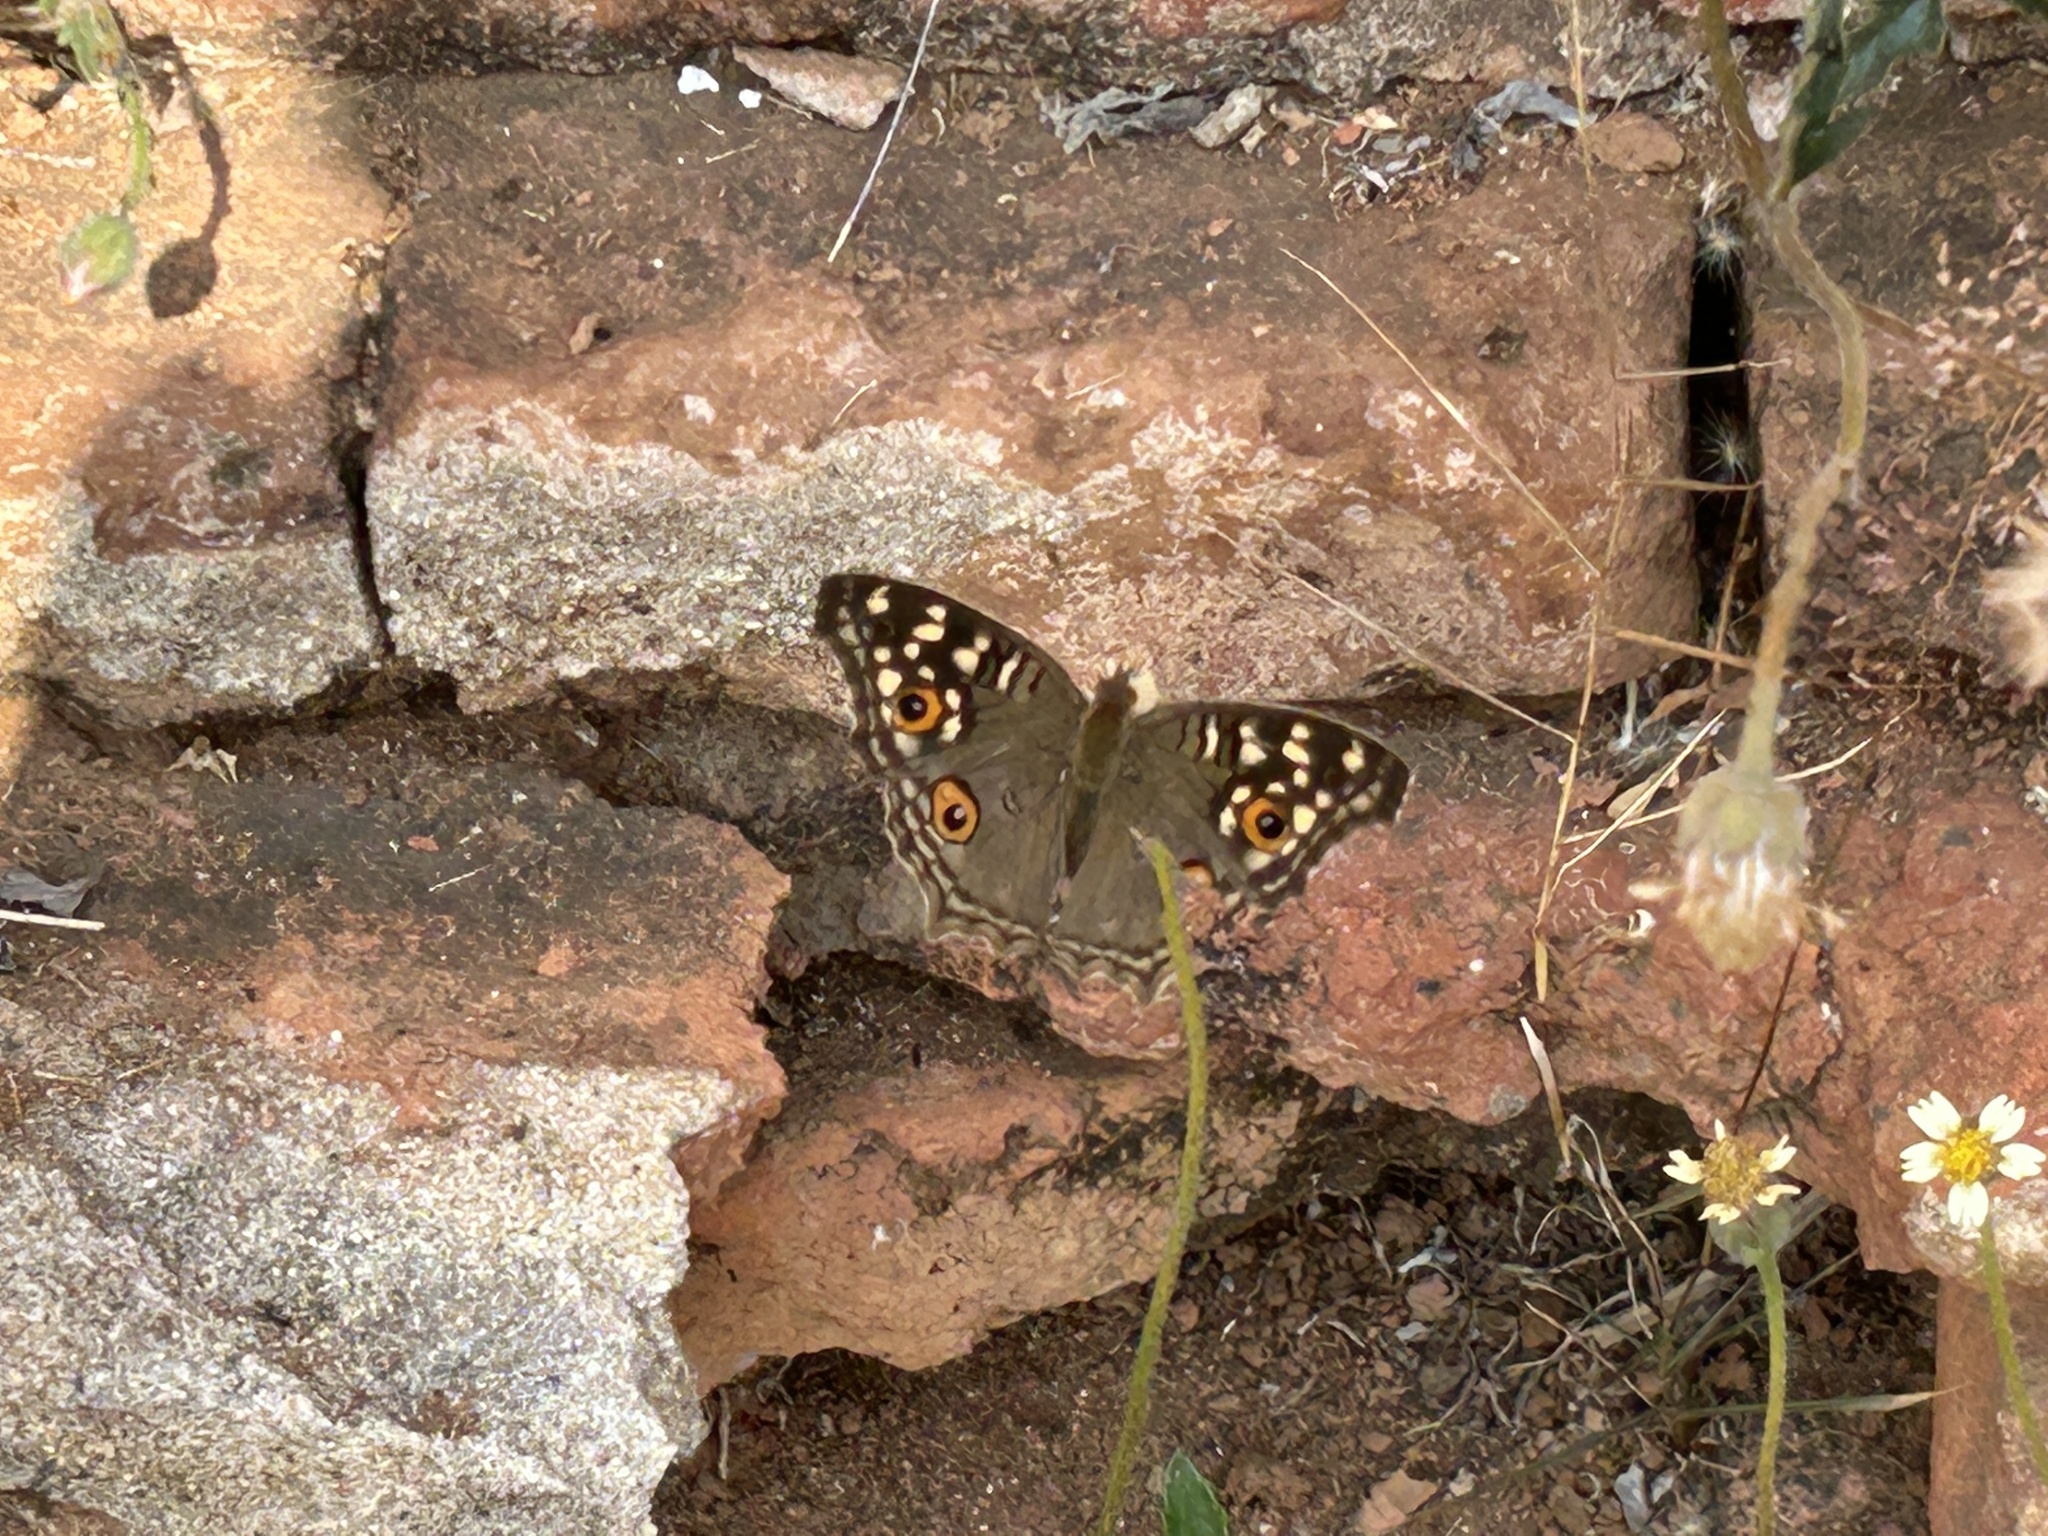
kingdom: Animalia
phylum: Arthropoda
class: Insecta
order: Lepidoptera
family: Nymphalidae
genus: Junonia
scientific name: Junonia lemonias
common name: Lemon pansy
